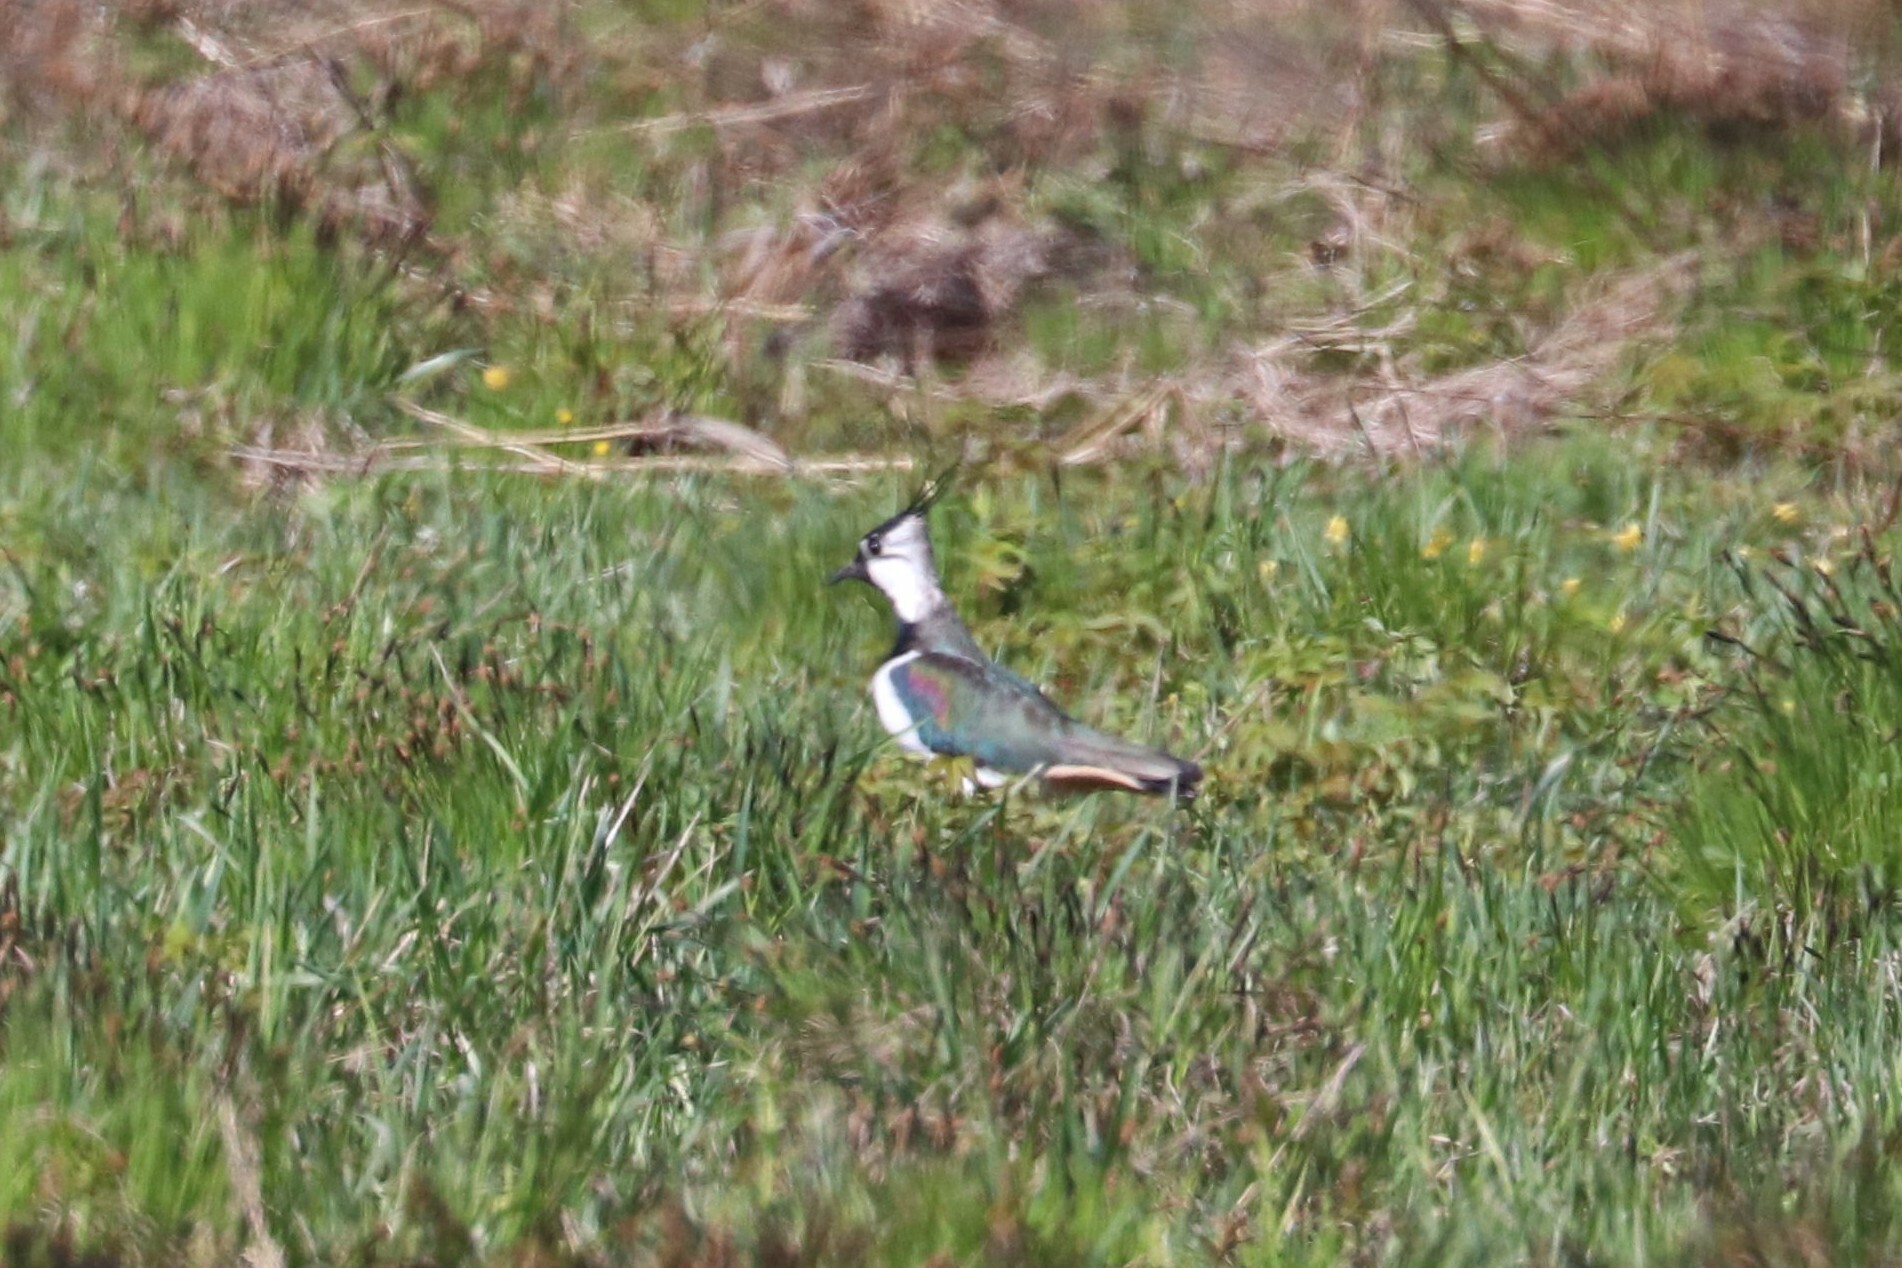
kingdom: Animalia
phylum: Chordata
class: Aves
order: Charadriiformes
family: Charadriidae
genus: Vanellus
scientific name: Vanellus vanellus
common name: Northern lapwing
